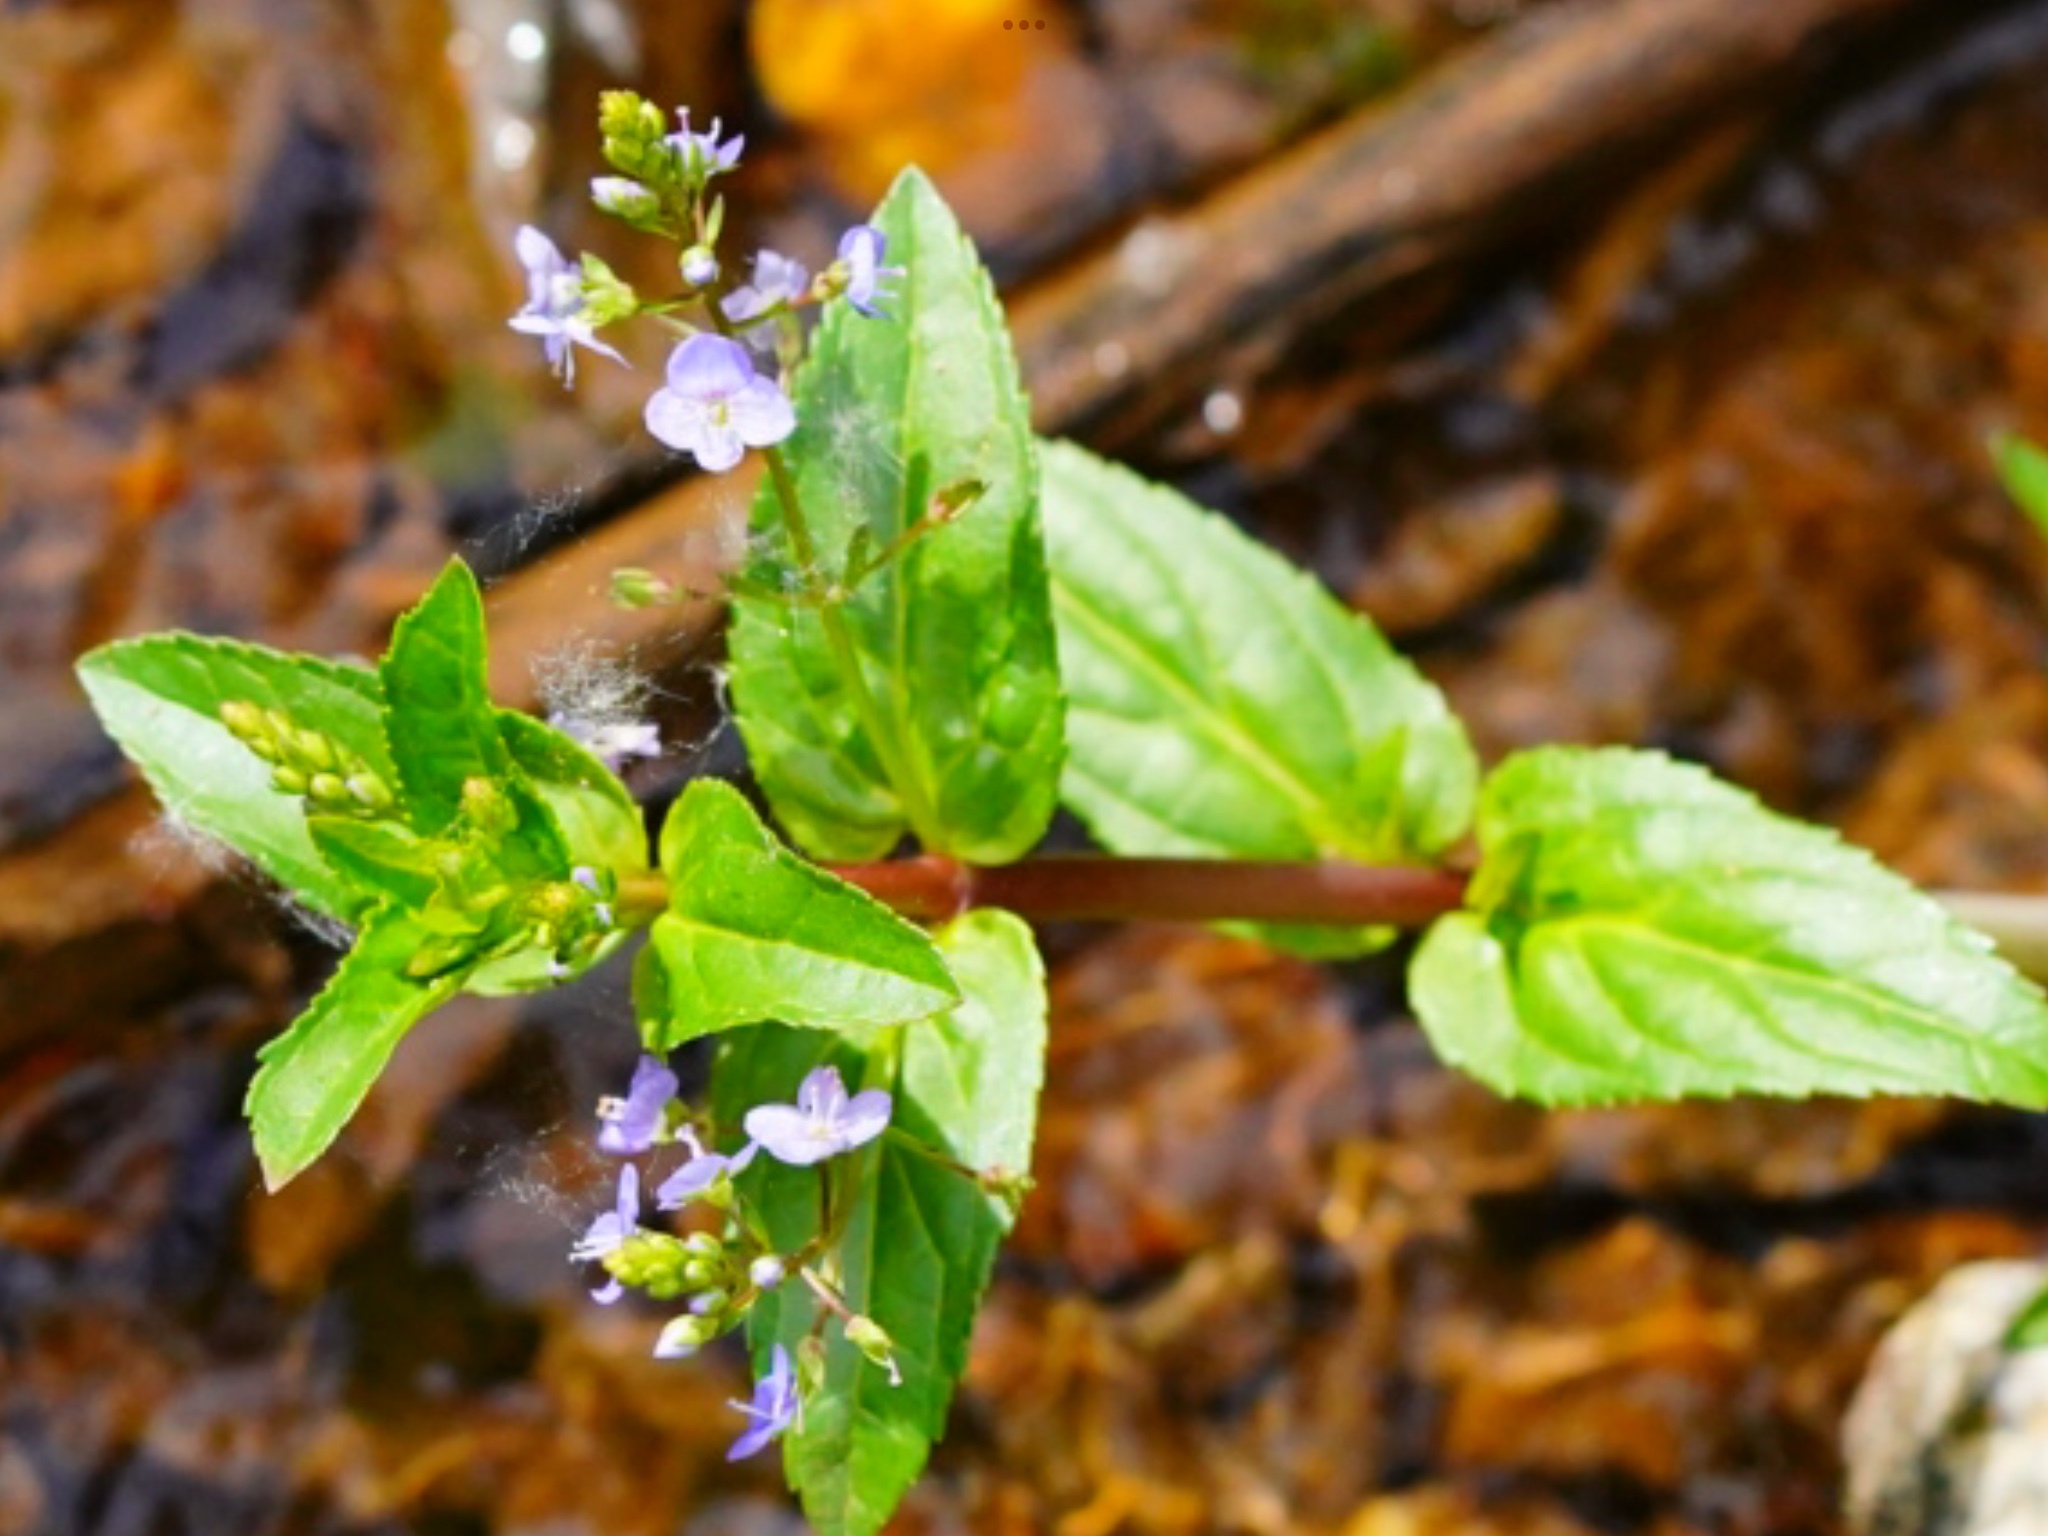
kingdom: Plantae
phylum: Tracheophyta
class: Magnoliopsida
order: Lamiales
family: Plantaginaceae
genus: Veronica
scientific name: Veronica americana
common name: American brooklime
